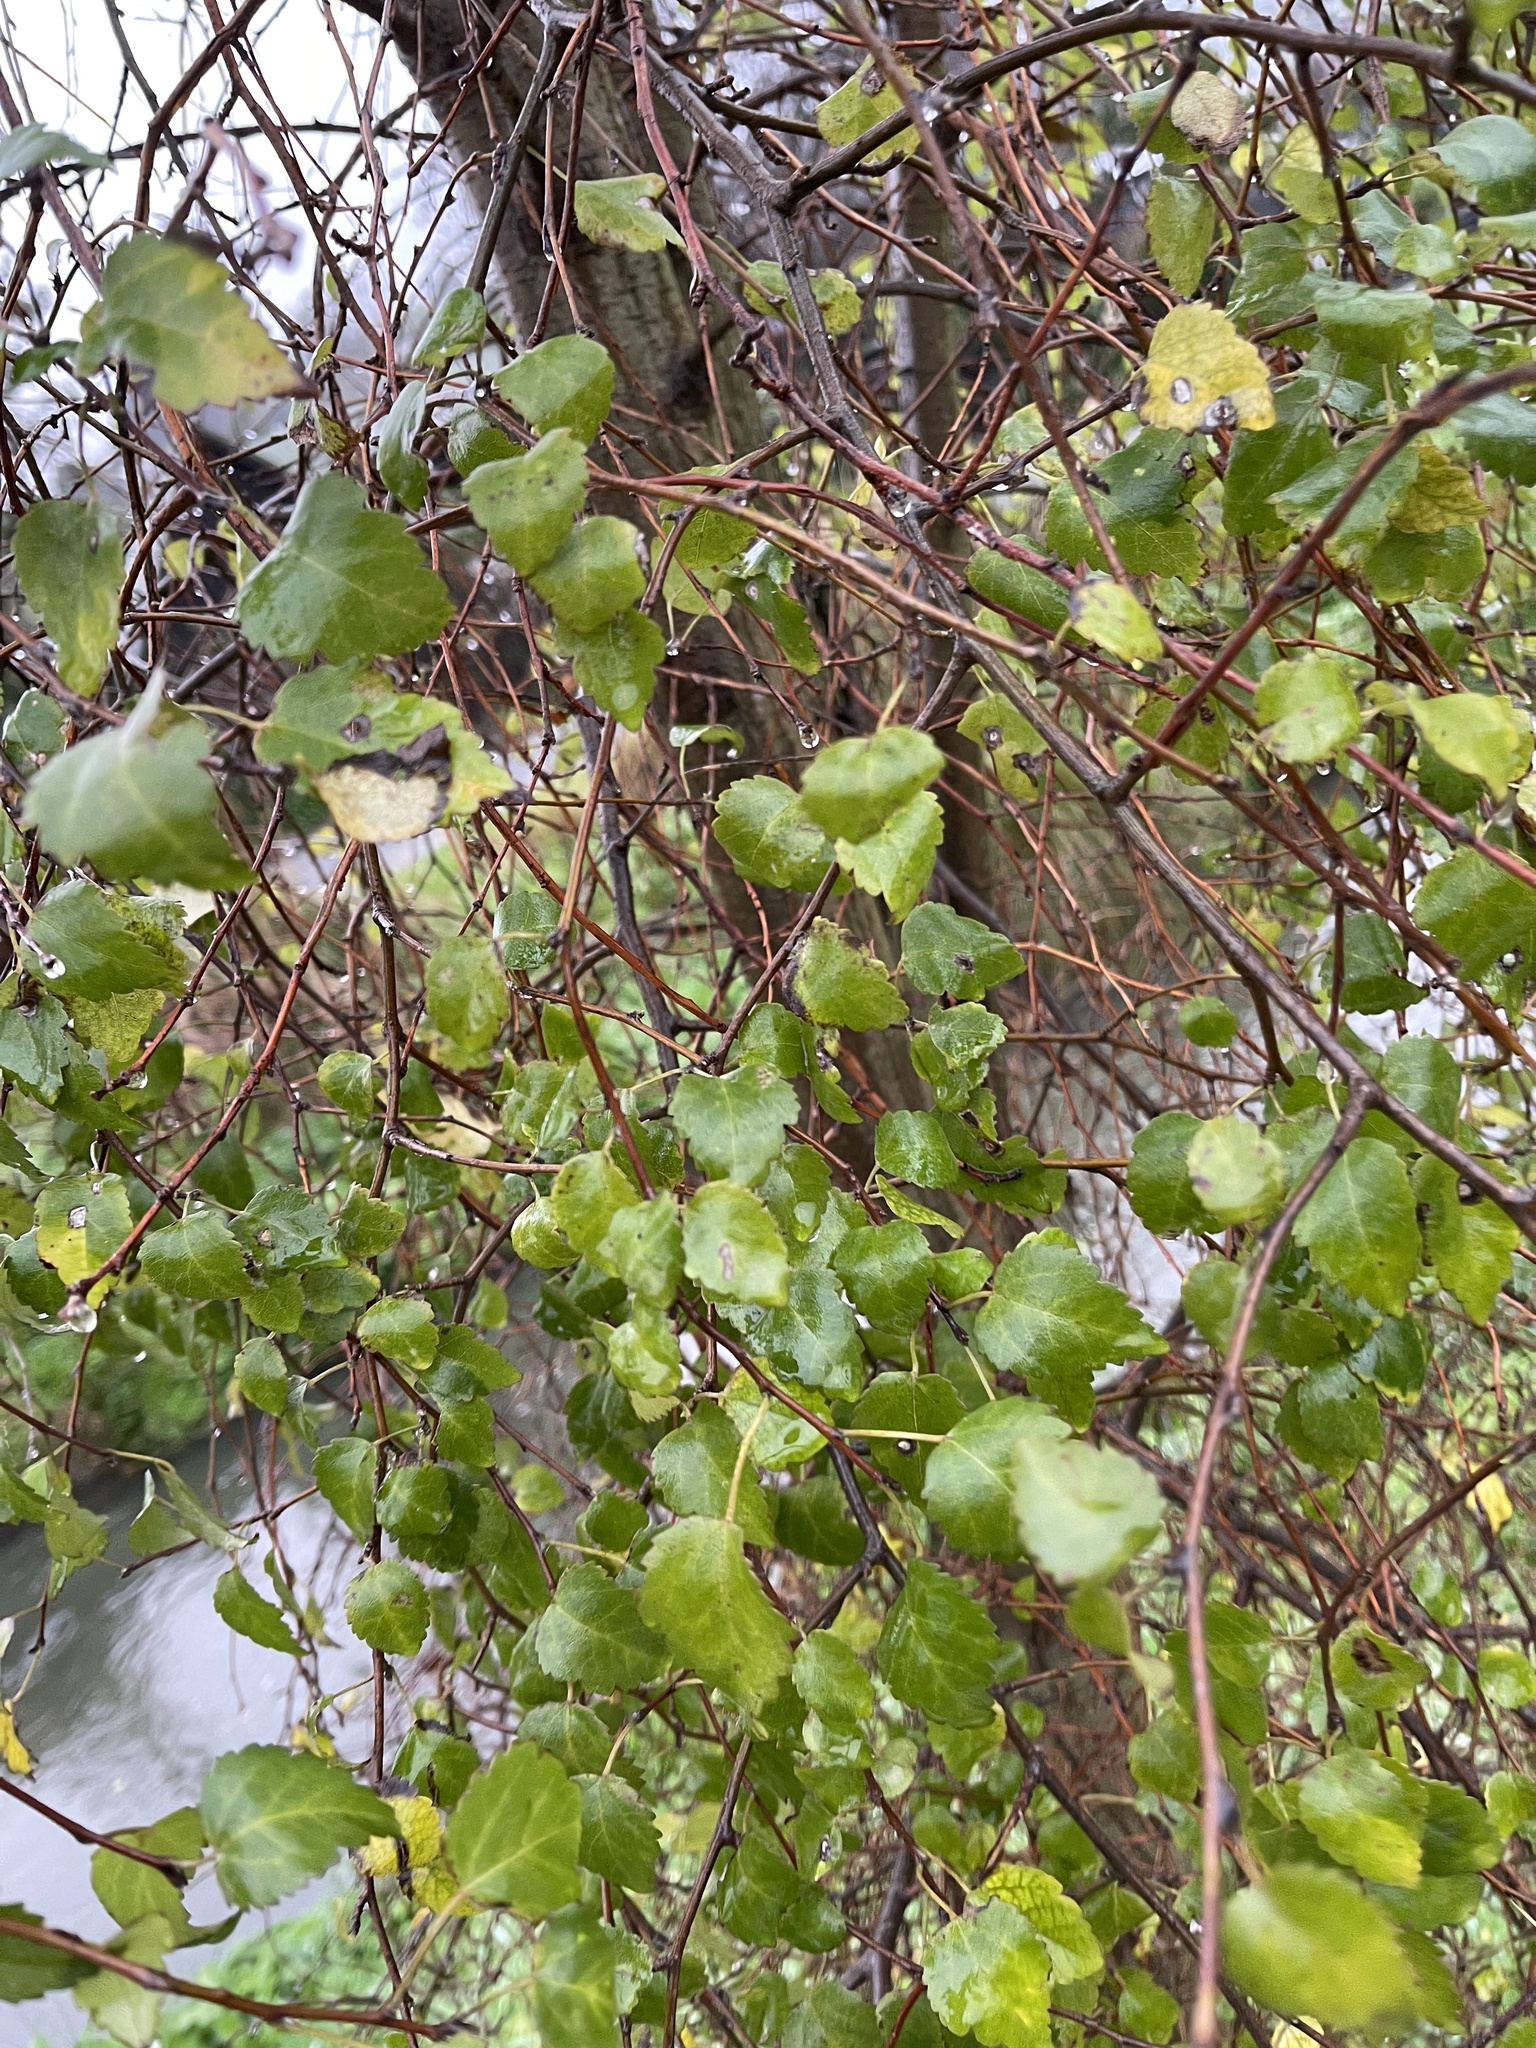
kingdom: Plantae
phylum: Tracheophyta
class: Magnoliopsida
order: Malvales
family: Malvaceae
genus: Plagianthus
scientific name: Plagianthus regius
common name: Manatu
